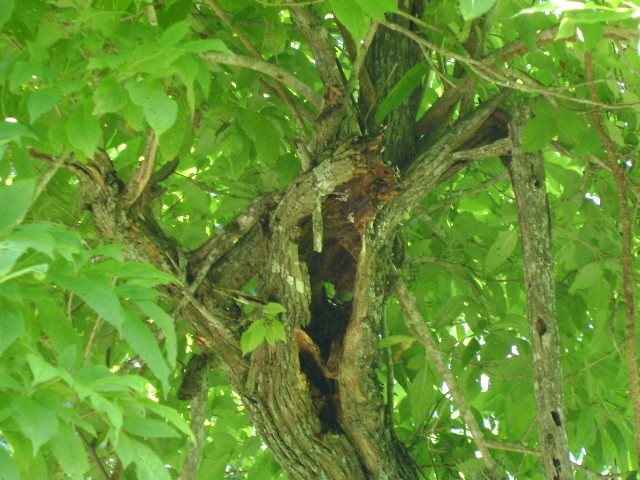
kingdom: Plantae
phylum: Tracheophyta
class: Magnoliopsida
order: Lamiales
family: Bignoniaceae
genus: Tecoma
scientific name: Tecoma stans
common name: Yellow trumpetbush
